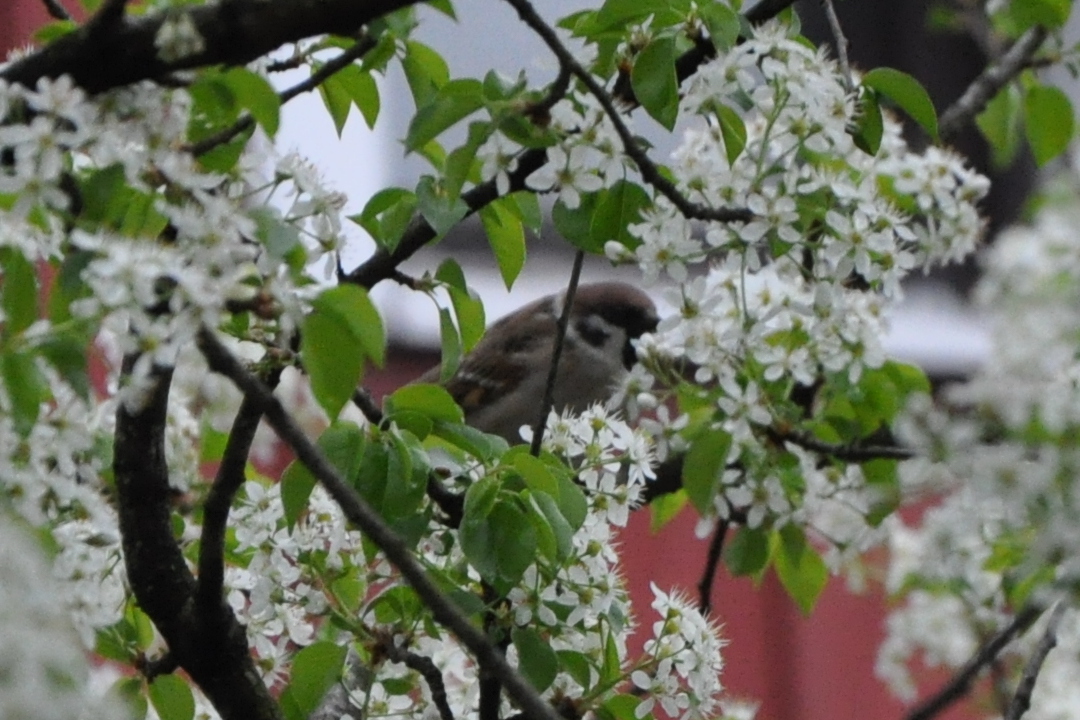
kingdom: Animalia
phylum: Chordata
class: Aves
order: Passeriformes
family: Passeridae
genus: Passer
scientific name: Passer montanus
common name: Eurasian tree sparrow
